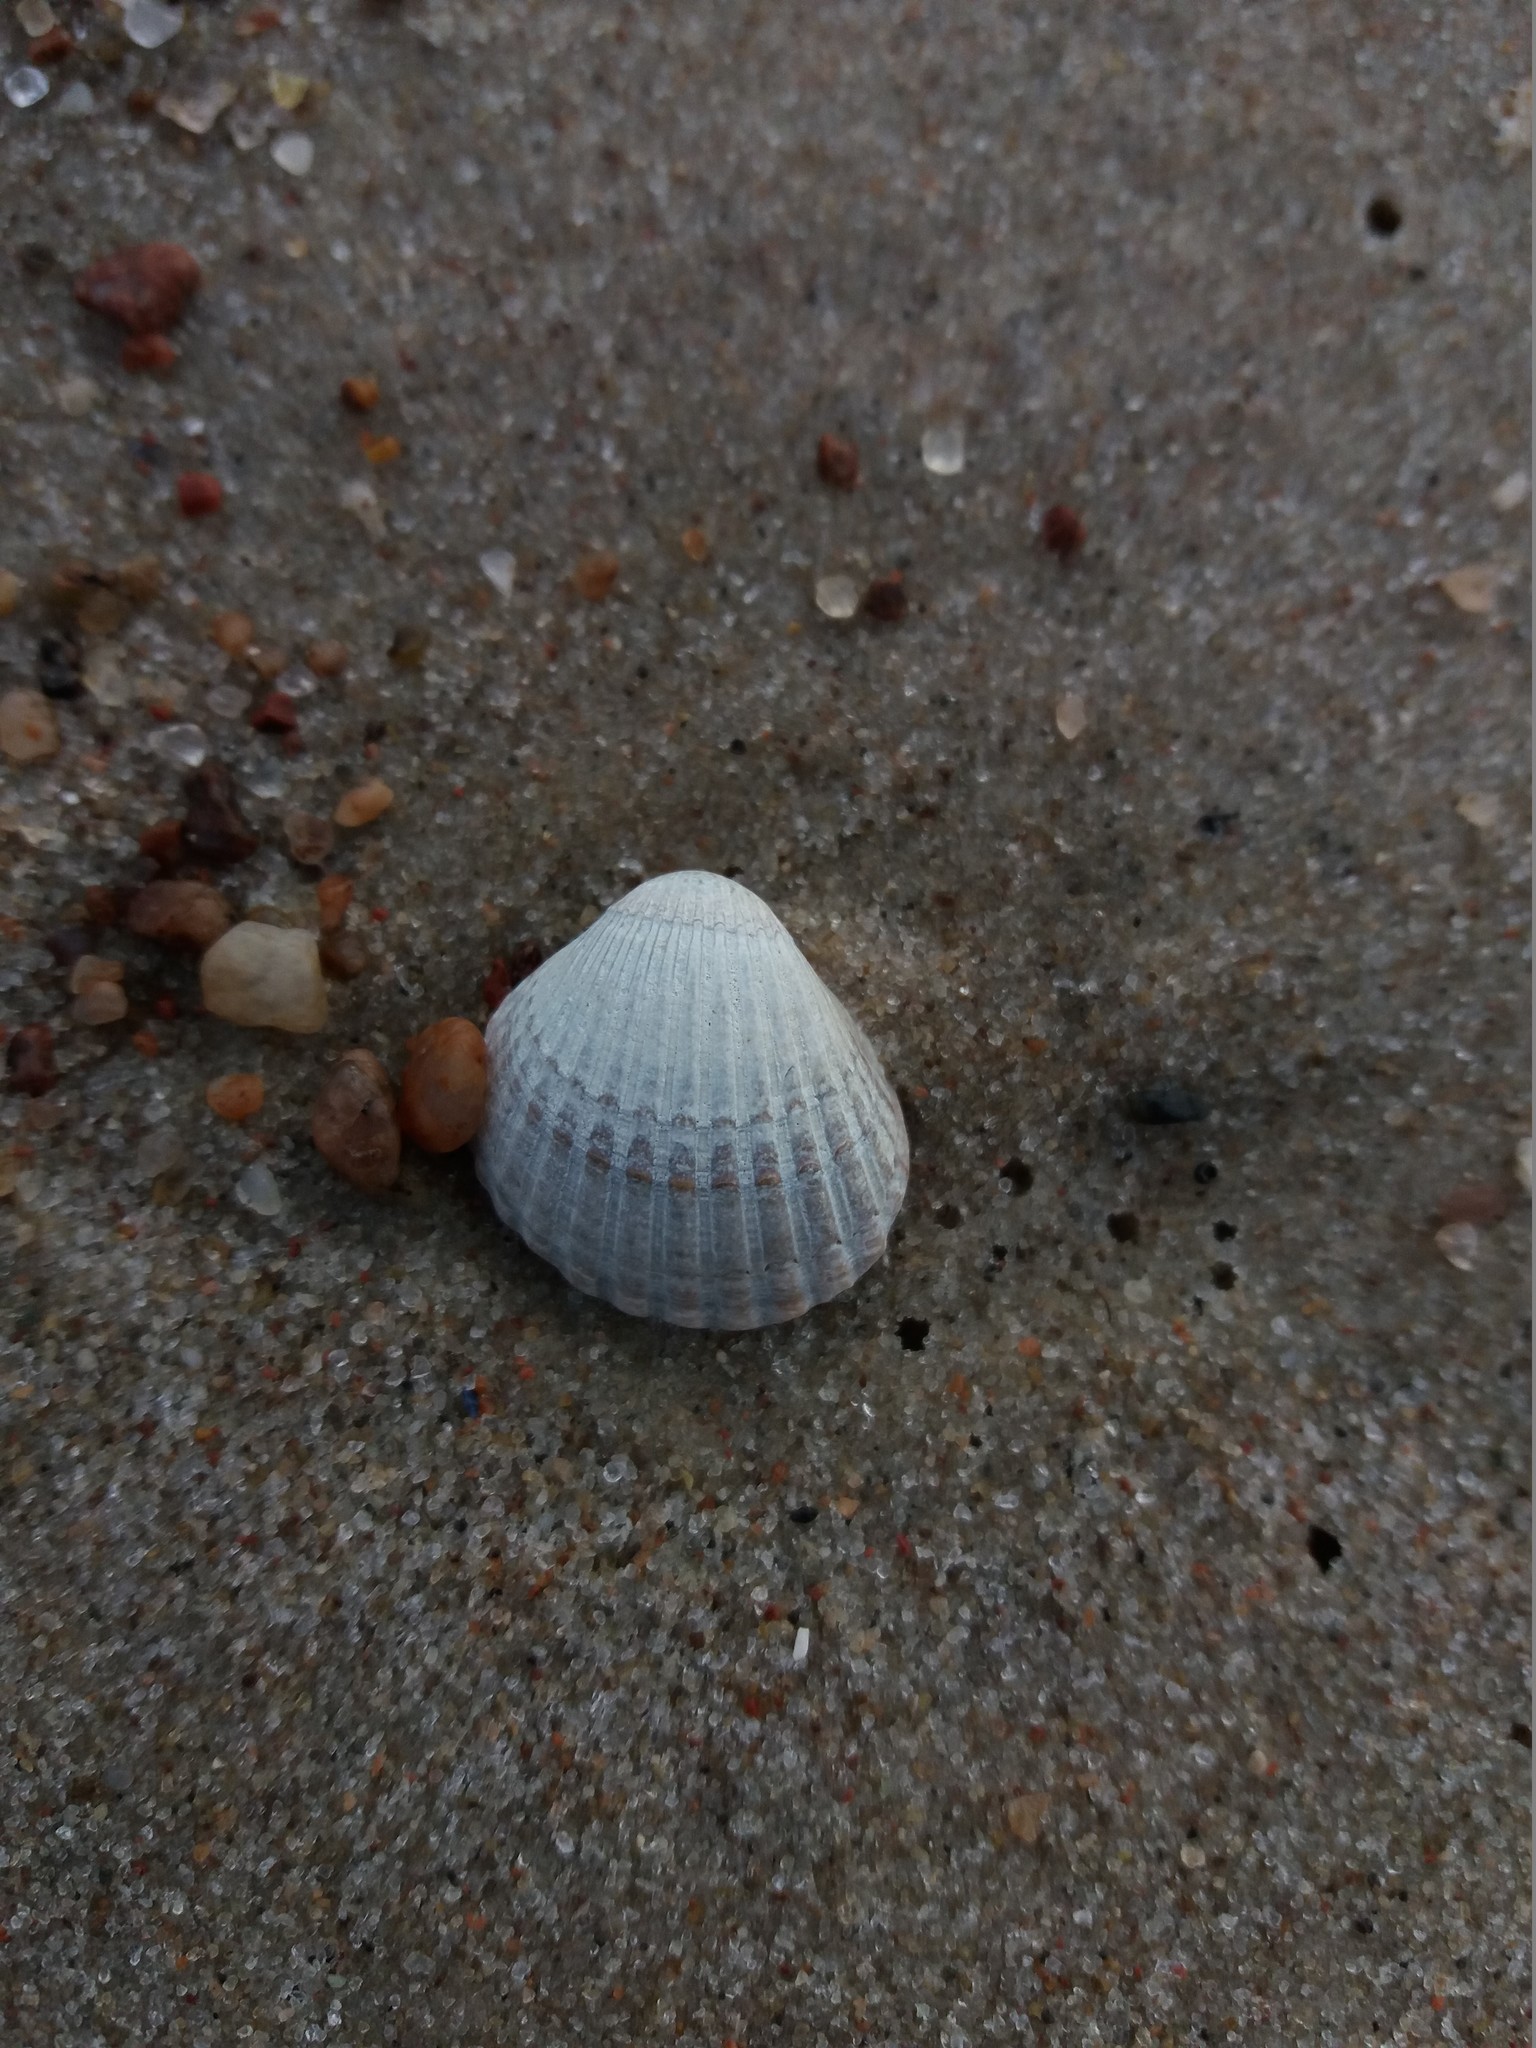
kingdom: Animalia
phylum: Mollusca
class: Bivalvia
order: Cardiida
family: Cardiidae
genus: Cerastoderma
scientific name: Cerastoderma glaucum
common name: Lagoon cockle
